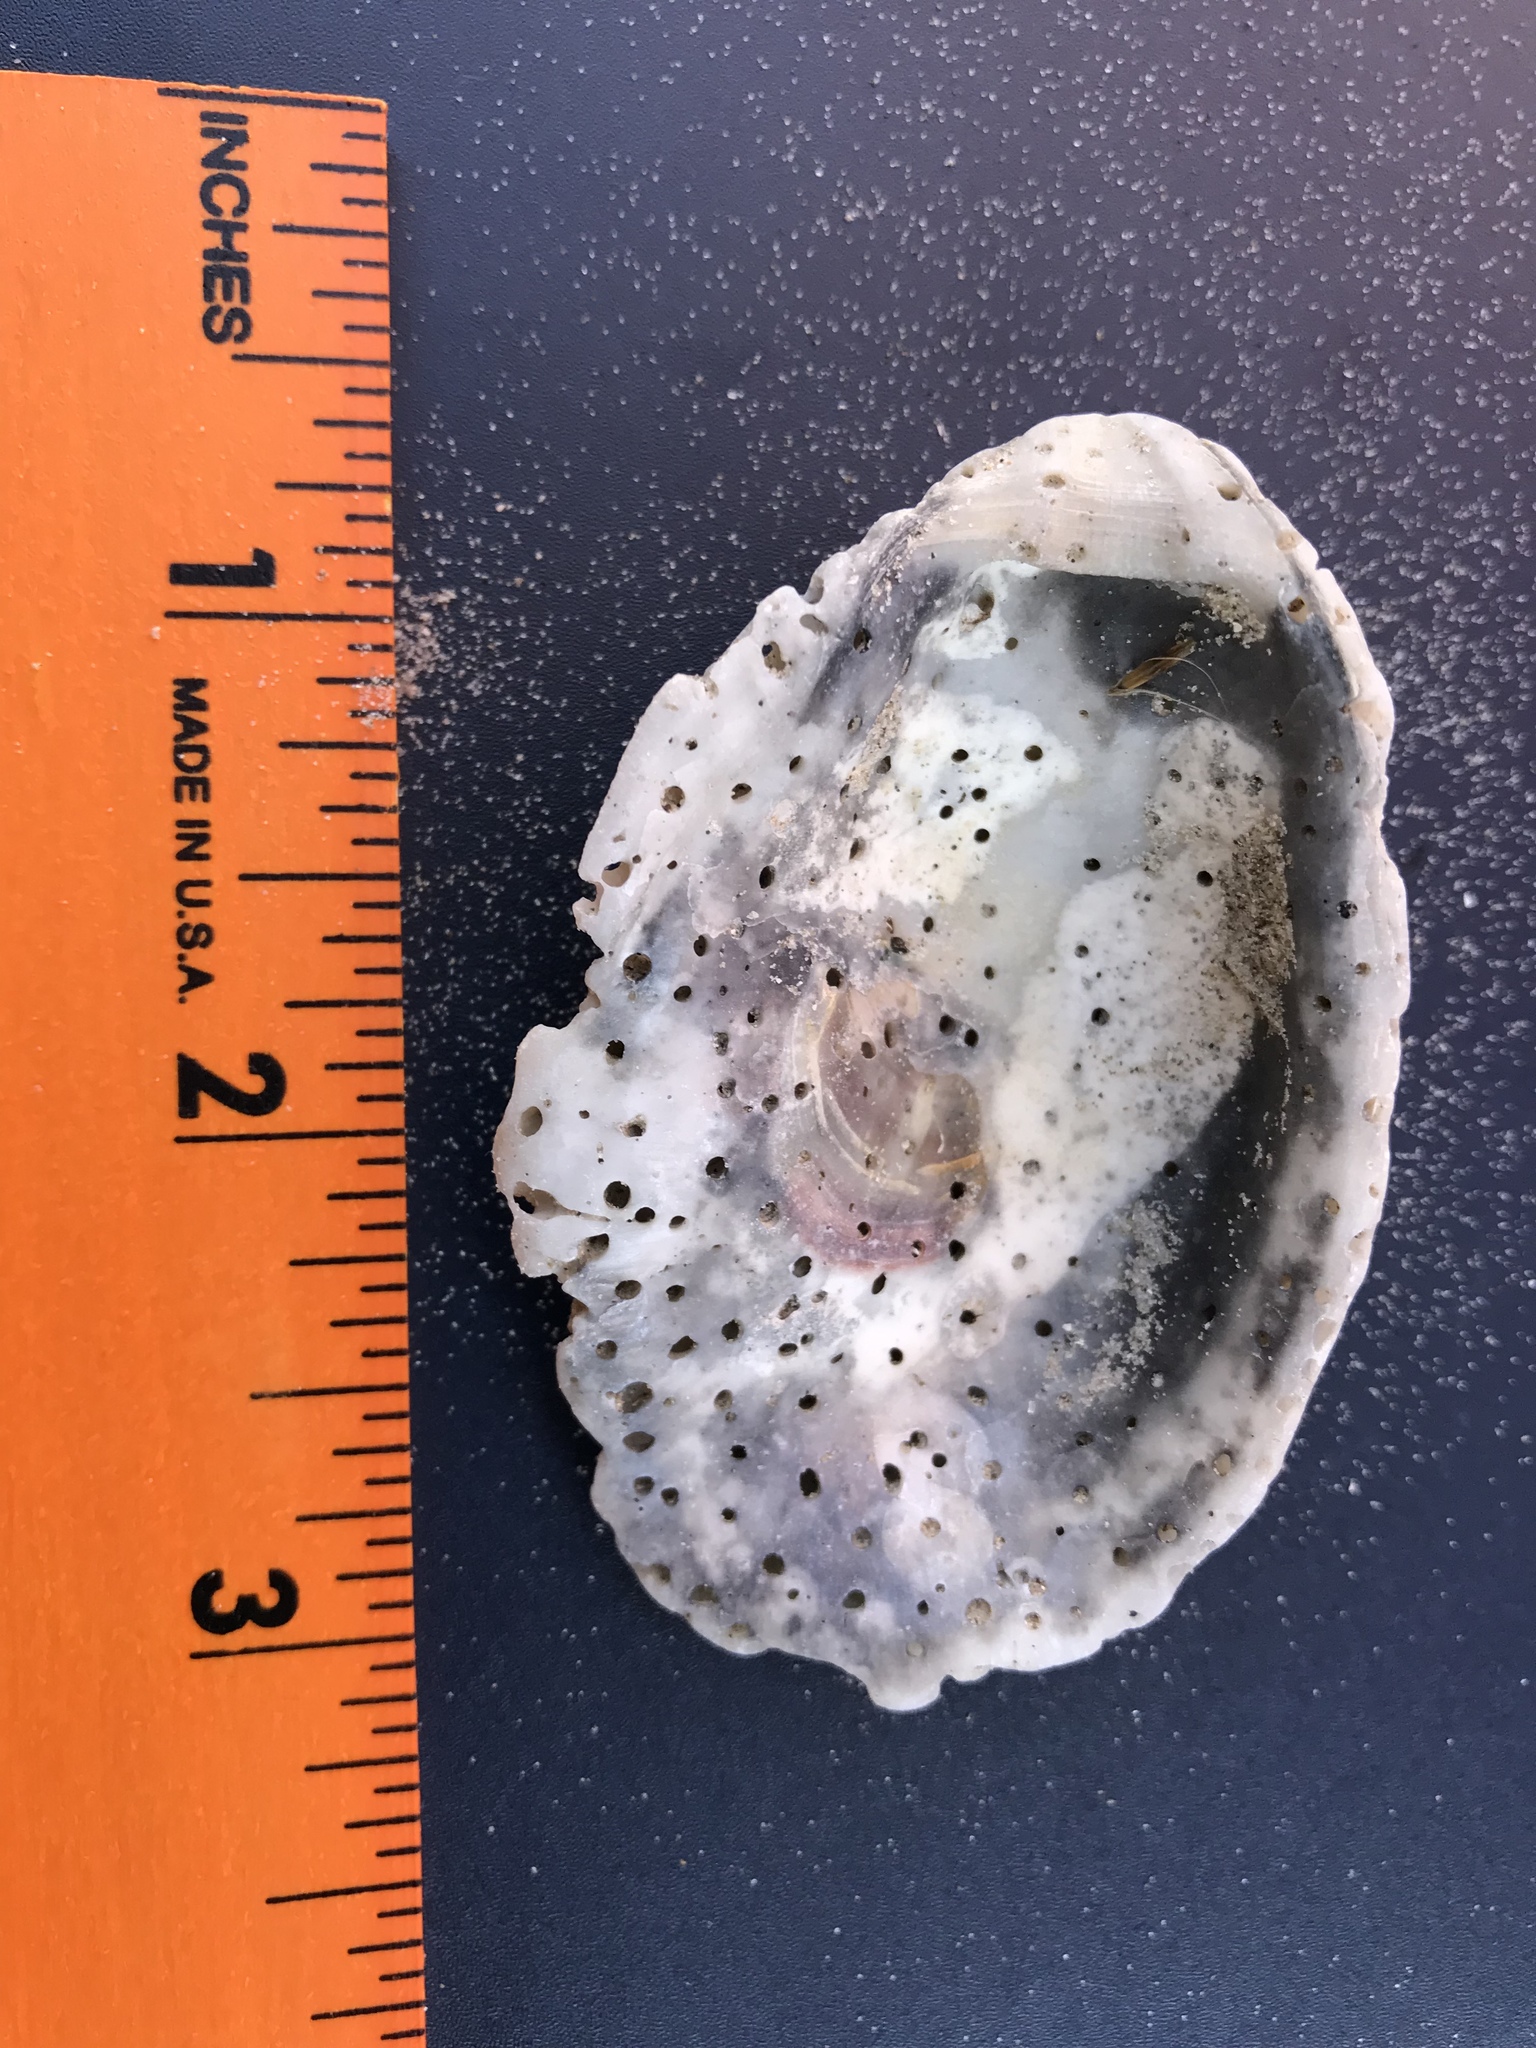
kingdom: Animalia
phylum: Mollusca
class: Bivalvia
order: Ostreida
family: Ostreidae
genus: Crassostrea
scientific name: Crassostrea virginica
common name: American oyster
